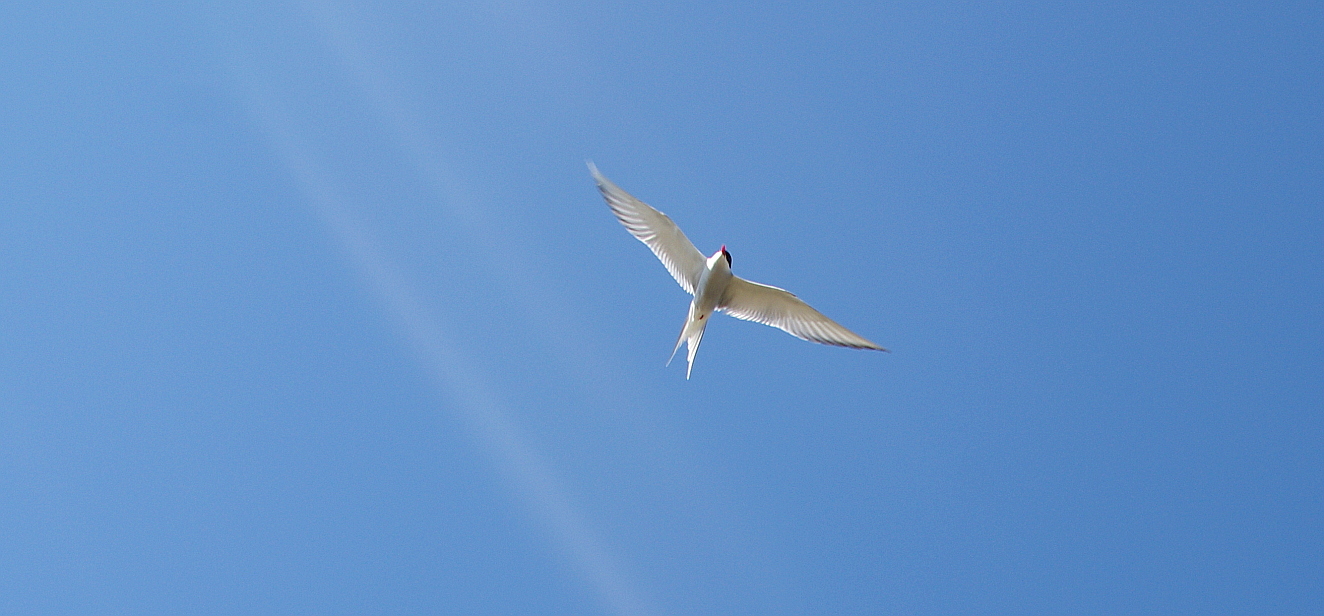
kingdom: Animalia
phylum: Chordata
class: Aves
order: Charadriiformes
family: Laridae
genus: Sterna
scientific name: Sterna paradisaea
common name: Arctic tern
